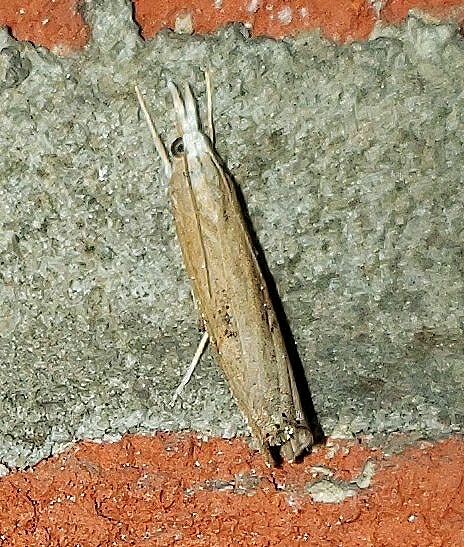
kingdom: Animalia
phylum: Arthropoda
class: Insecta
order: Lepidoptera
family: Crambidae
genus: Parapediasia
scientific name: Parapediasia teterellus
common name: Bluegrass webworm moth
